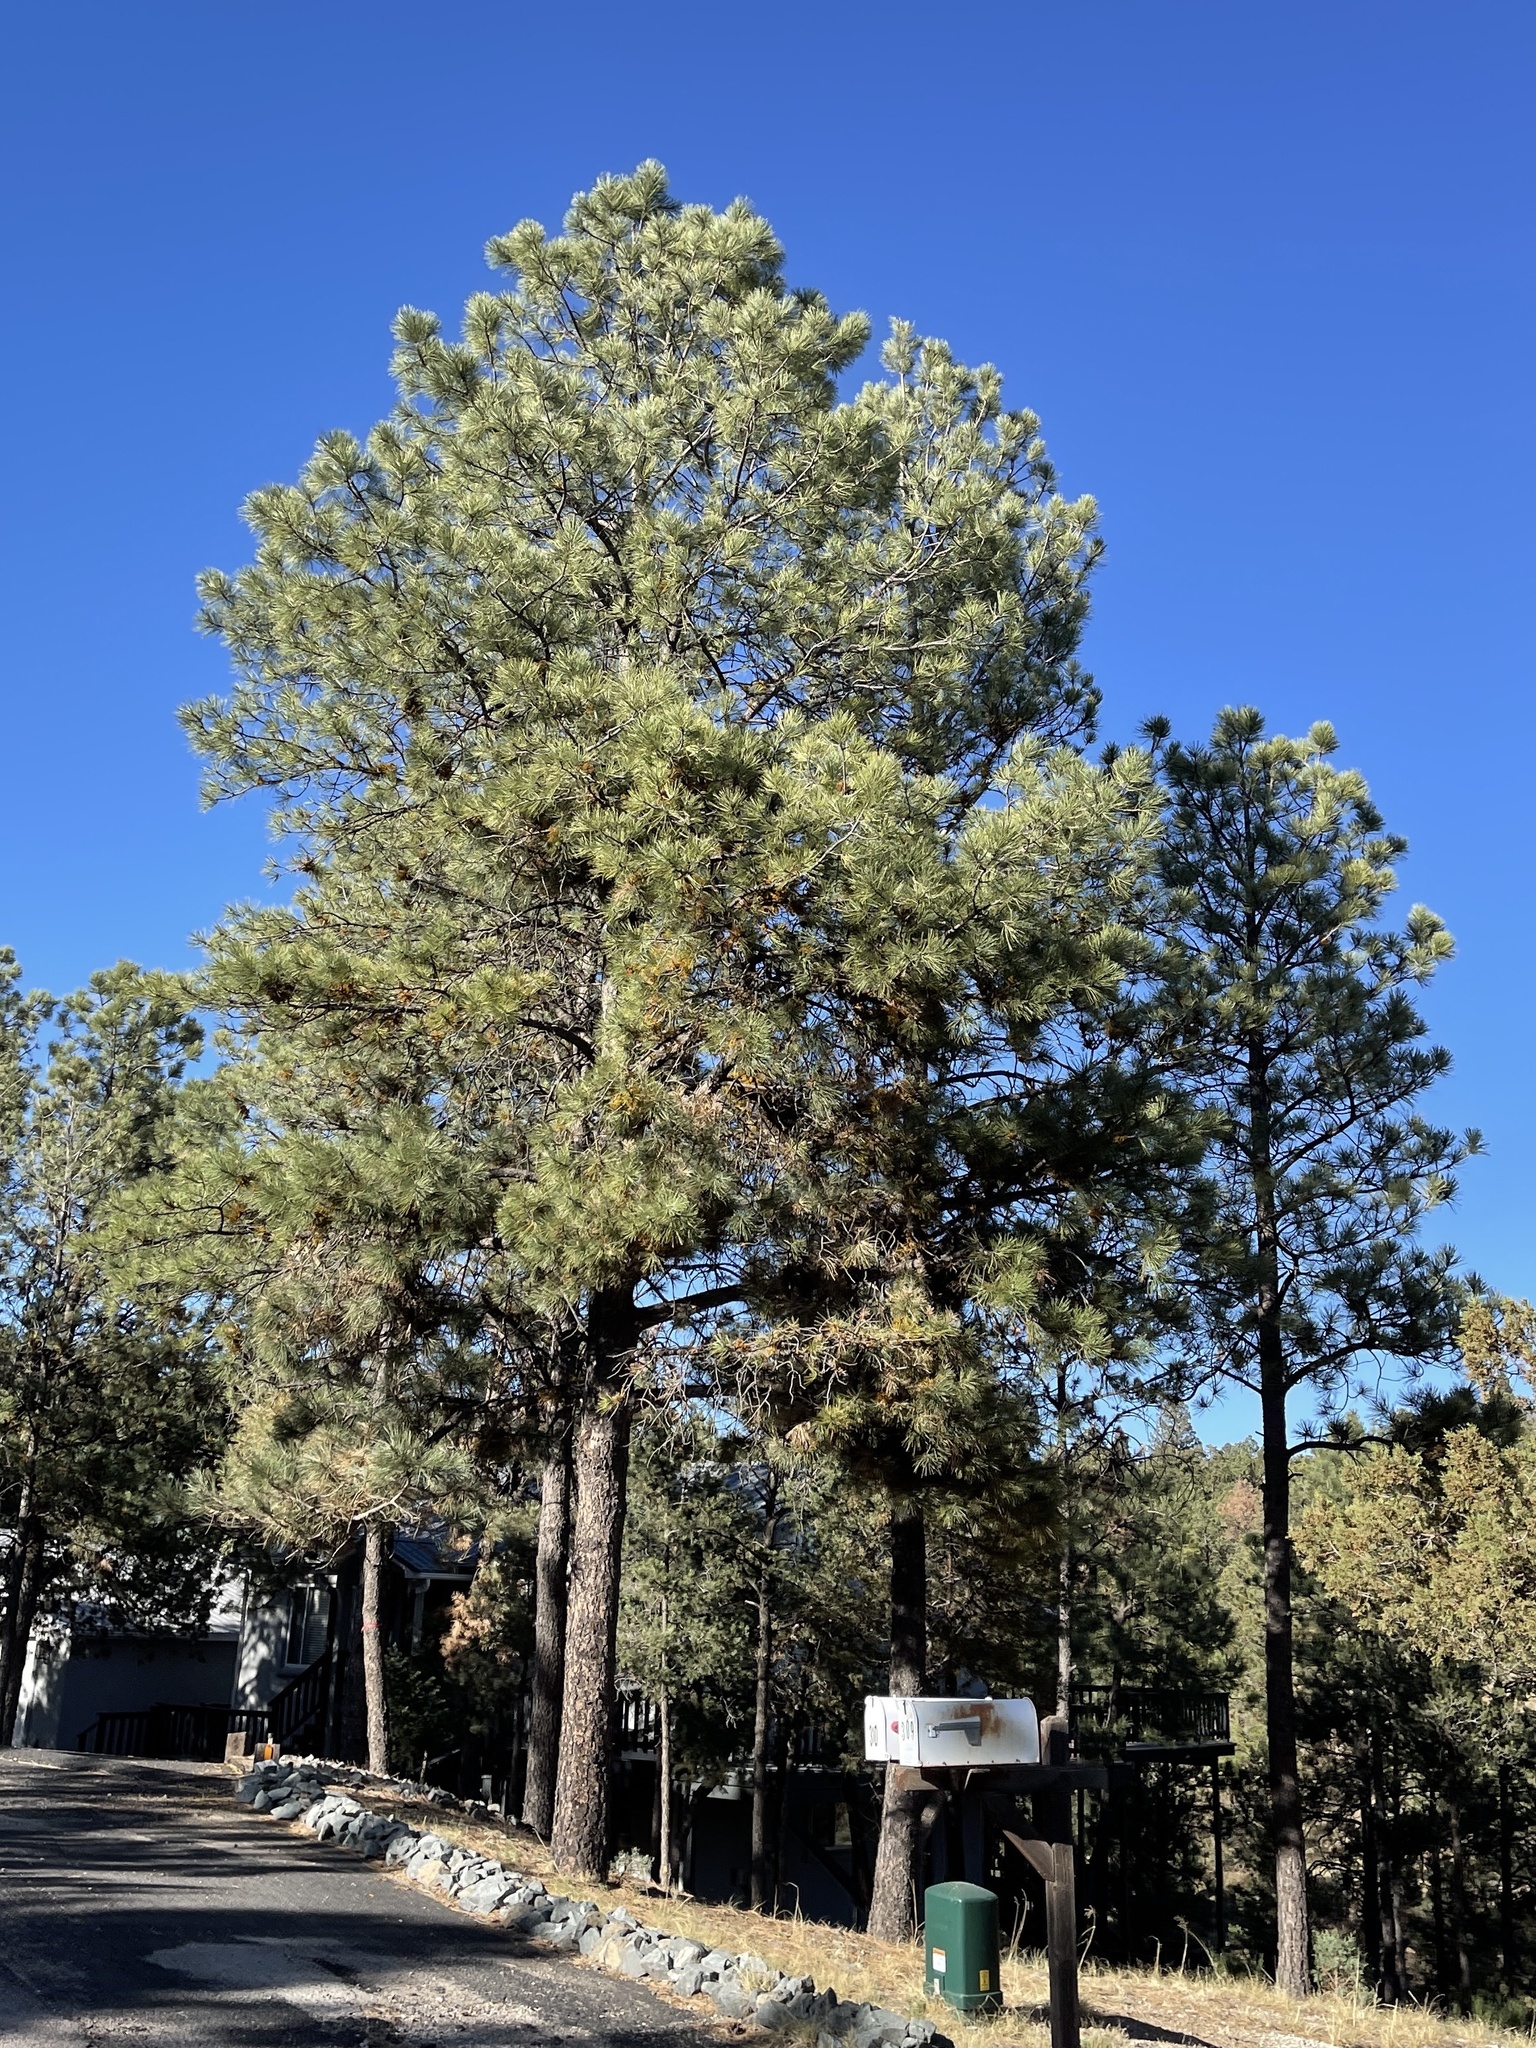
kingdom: Plantae
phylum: Tracheophyta
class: Pinopsida
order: Pinales
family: Pinaceae
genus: Pinus
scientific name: Pinus ponderosa
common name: Western yellow-pine
